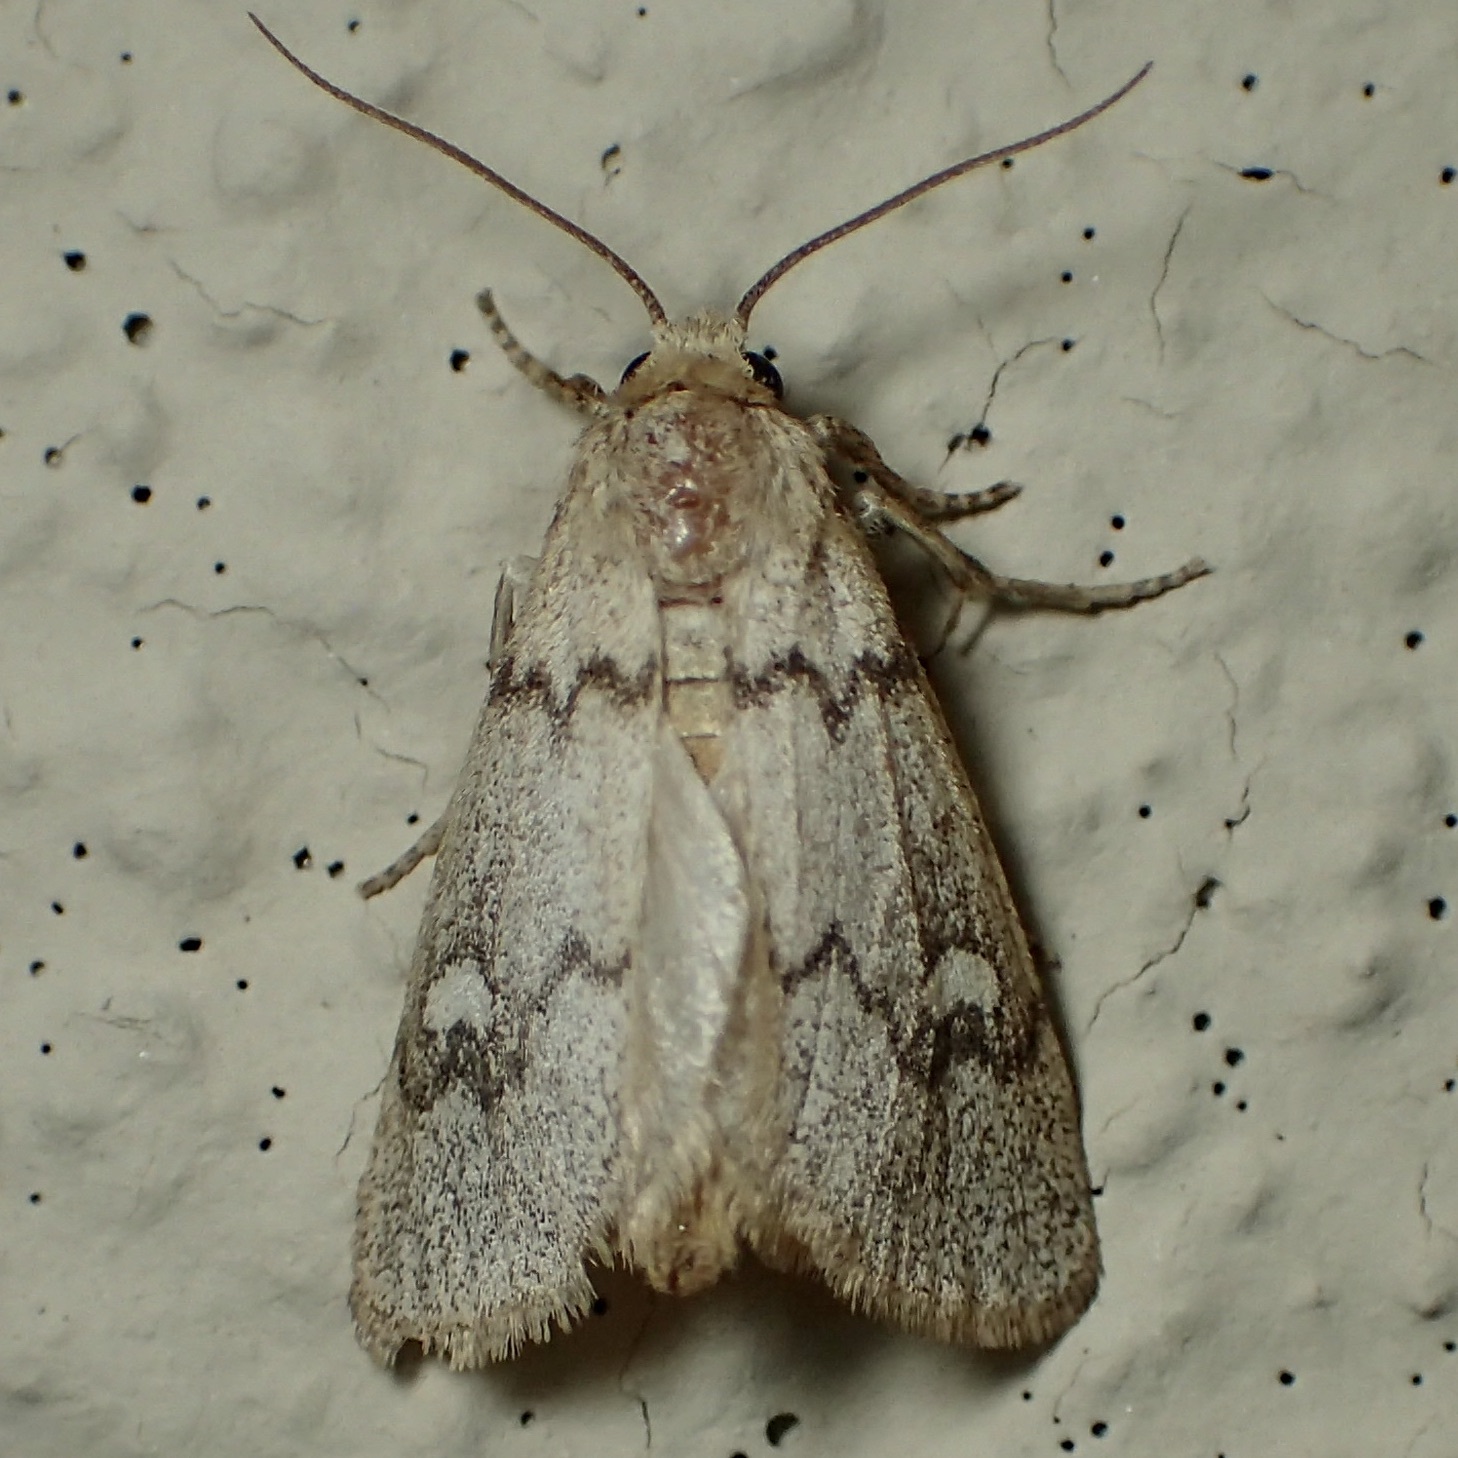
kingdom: Animalia
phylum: Arthropoda
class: Insecta
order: Lepidoptera
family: Noctuidae
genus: Narthecophora
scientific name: Narthecophora pulverea
